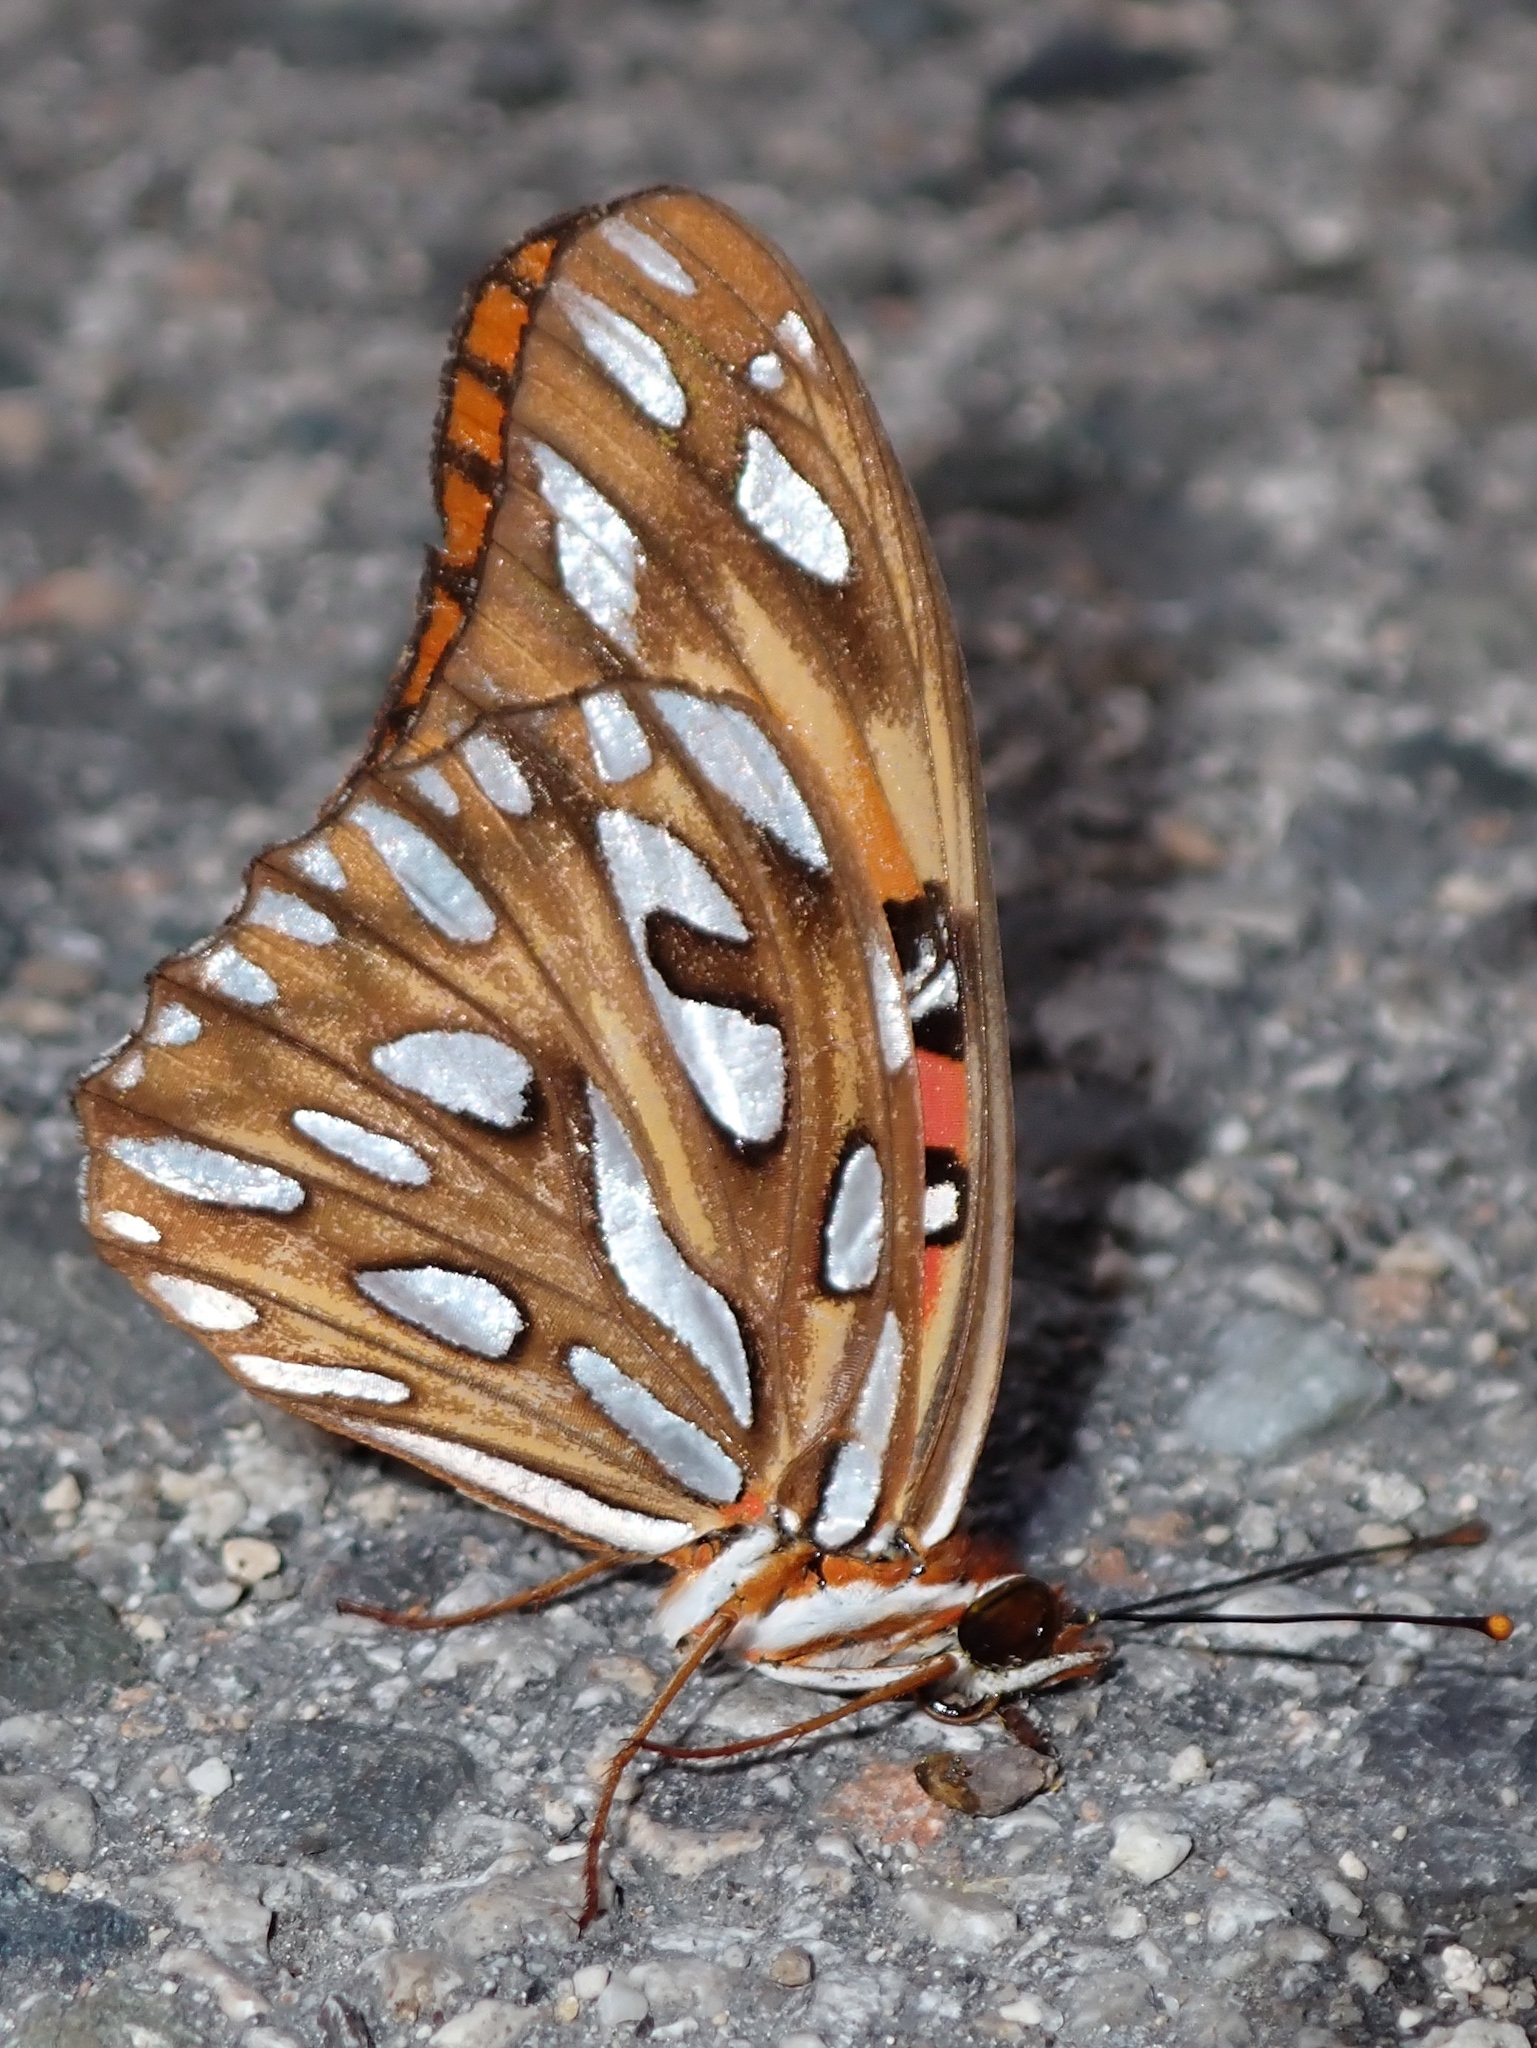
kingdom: Animalia
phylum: Arthropoda
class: Insecta
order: Lepidoptera
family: Nymphalidae
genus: Dione
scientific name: Dione vanillae
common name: Gulf fritillary
